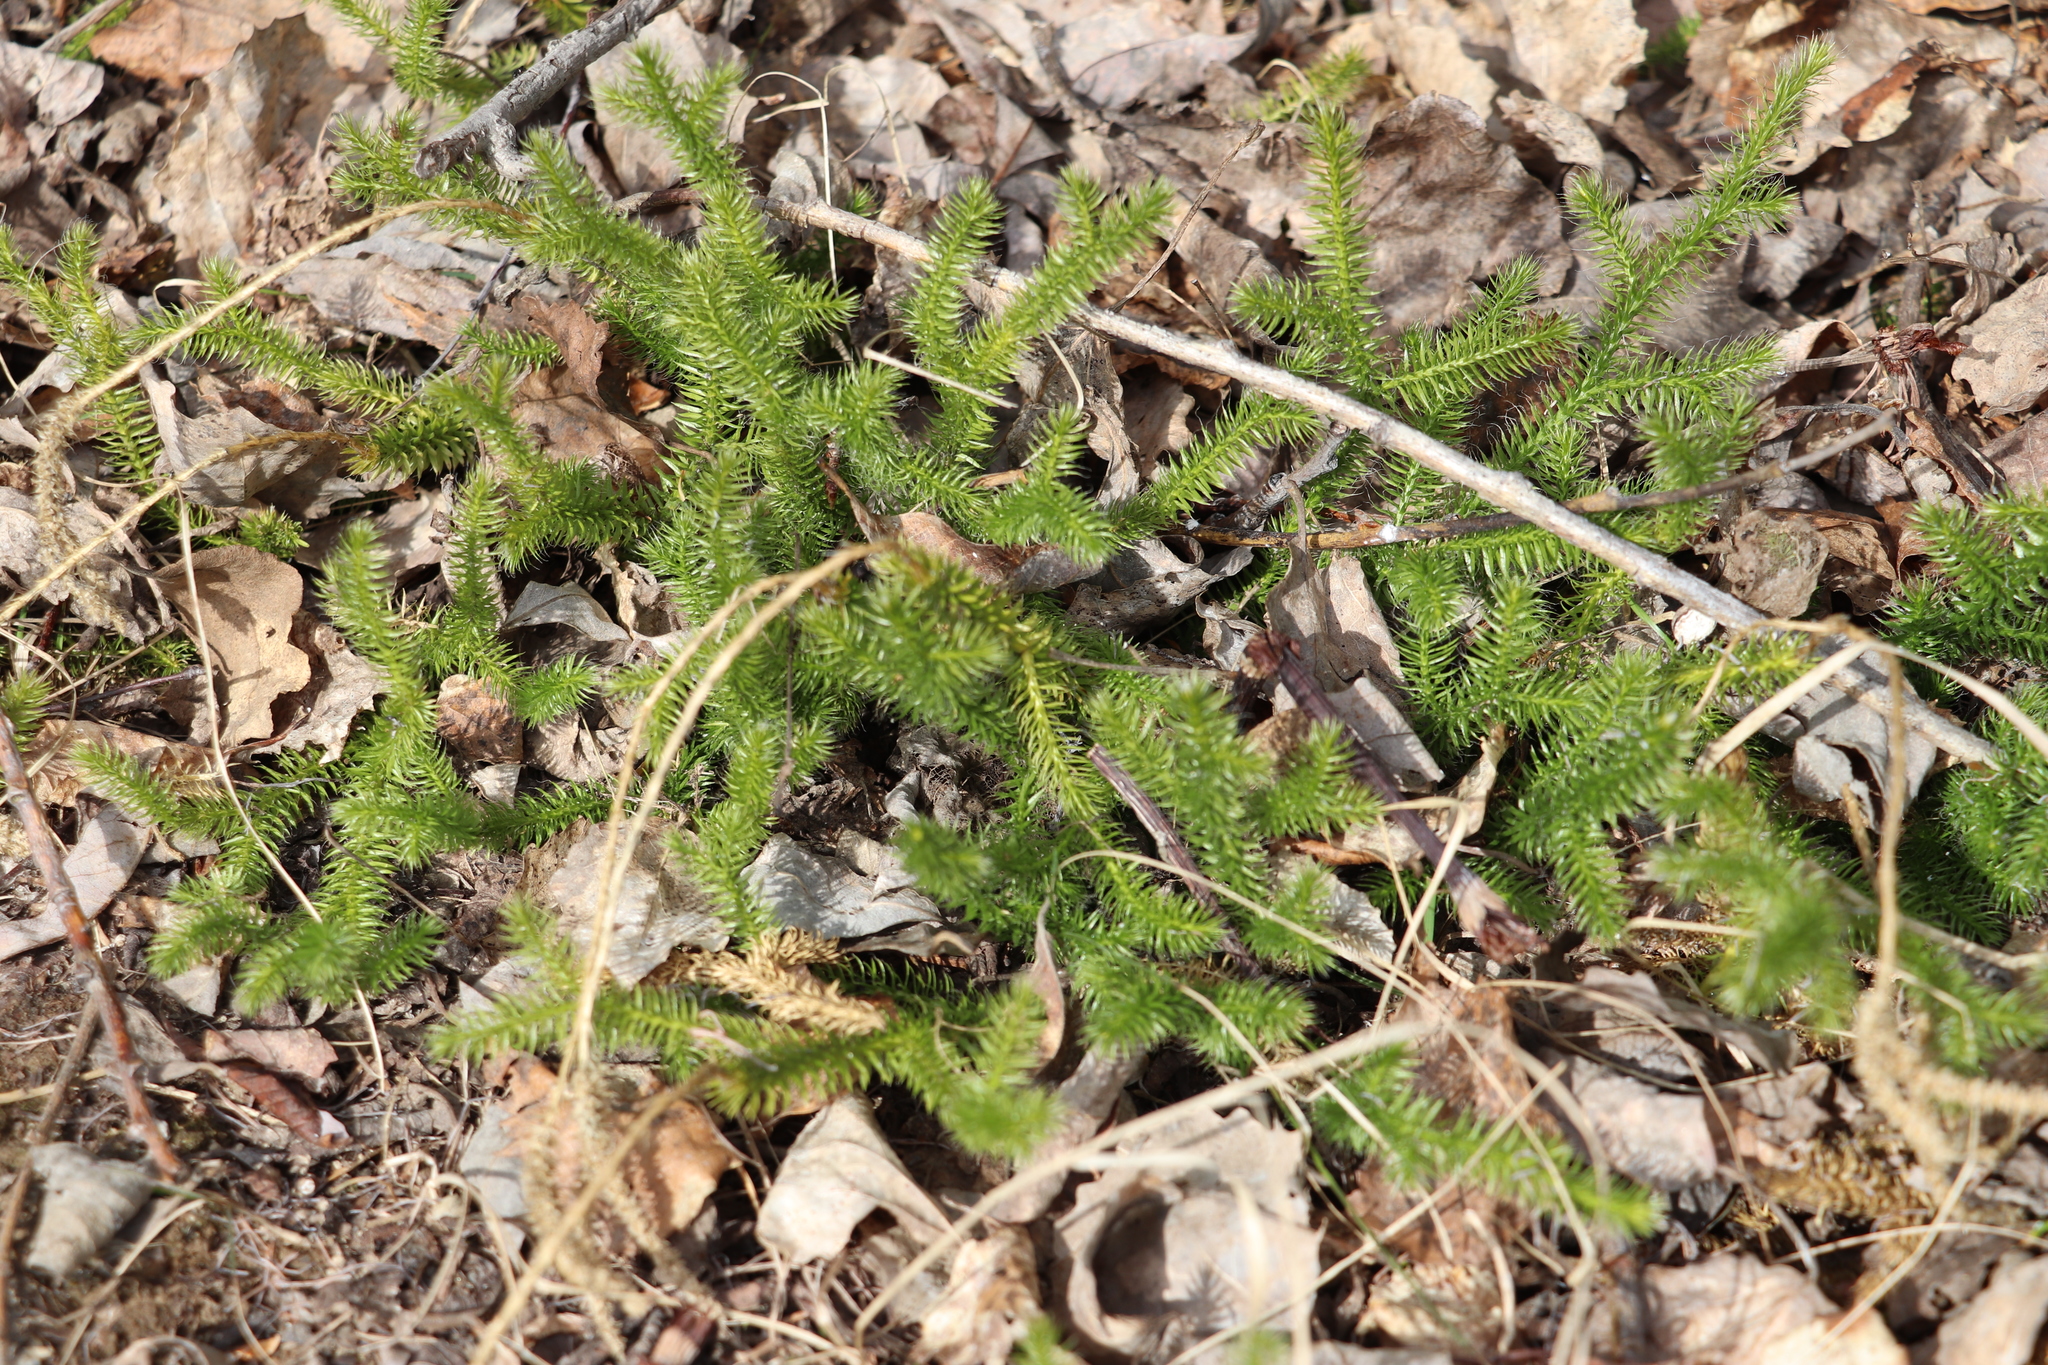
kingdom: Plantae
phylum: Tracheophyta
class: Lycopodiopsida
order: Lycopodiales
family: Lycopodiaceae
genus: Lycopodium
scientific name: Lycopodium clavatum
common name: Stag's-horn clubmoss
